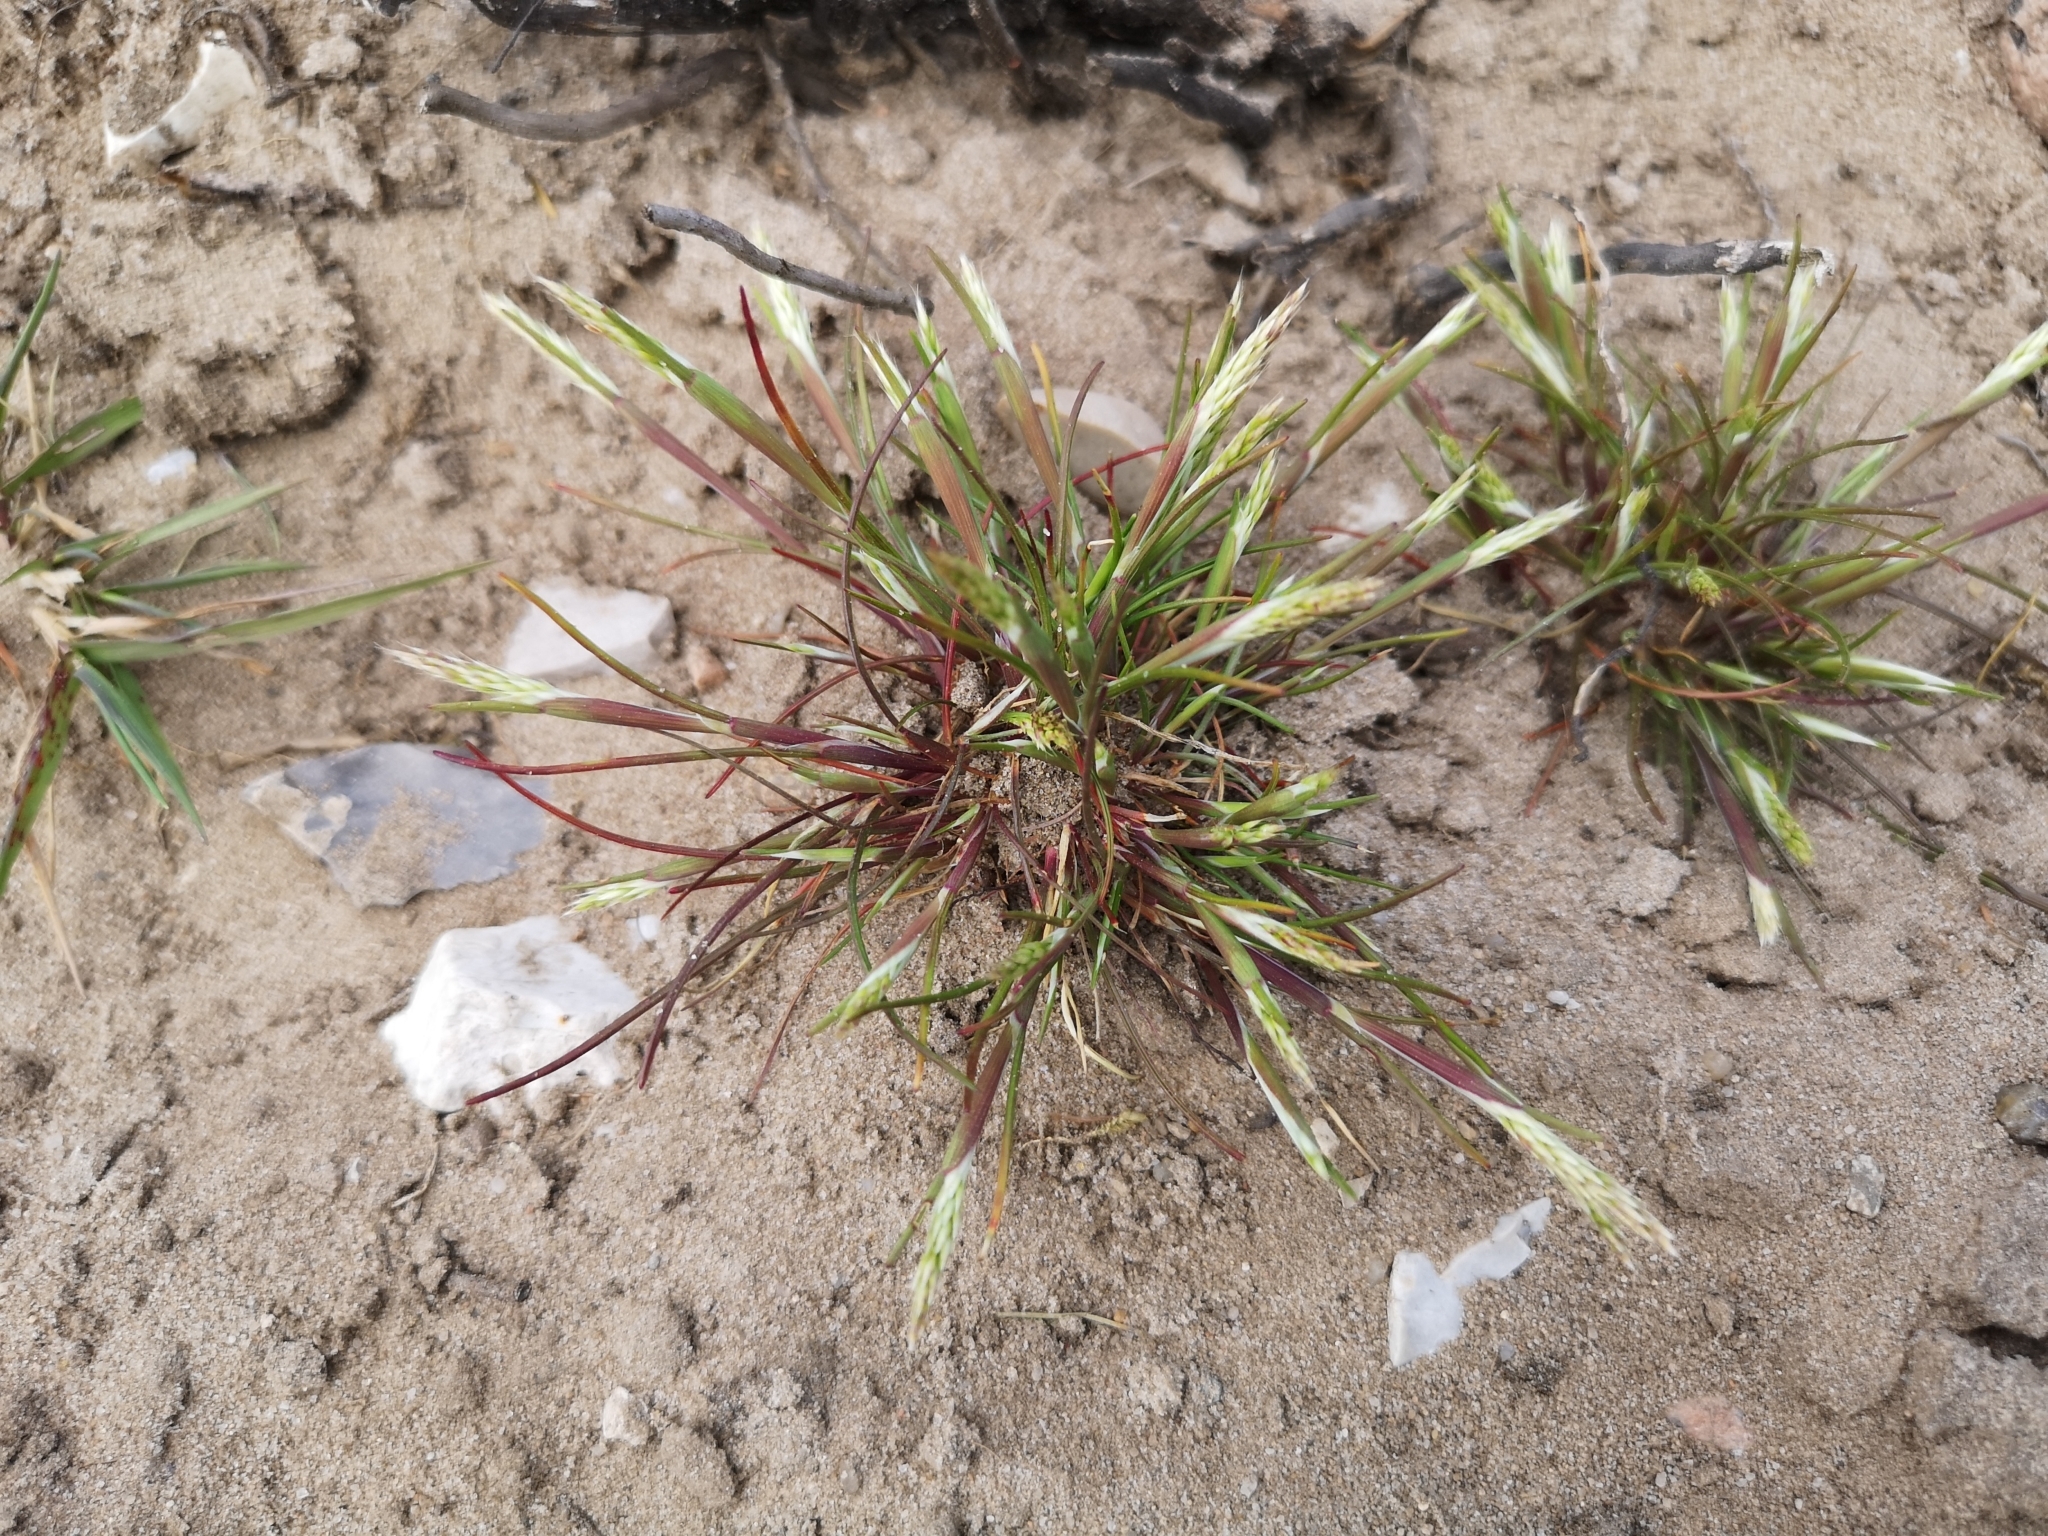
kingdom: Plantae
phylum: Tracheophyta
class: Liliopsida
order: Poales
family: Poaceae
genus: Aira
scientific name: Aira praecox
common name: Early hair-grass
